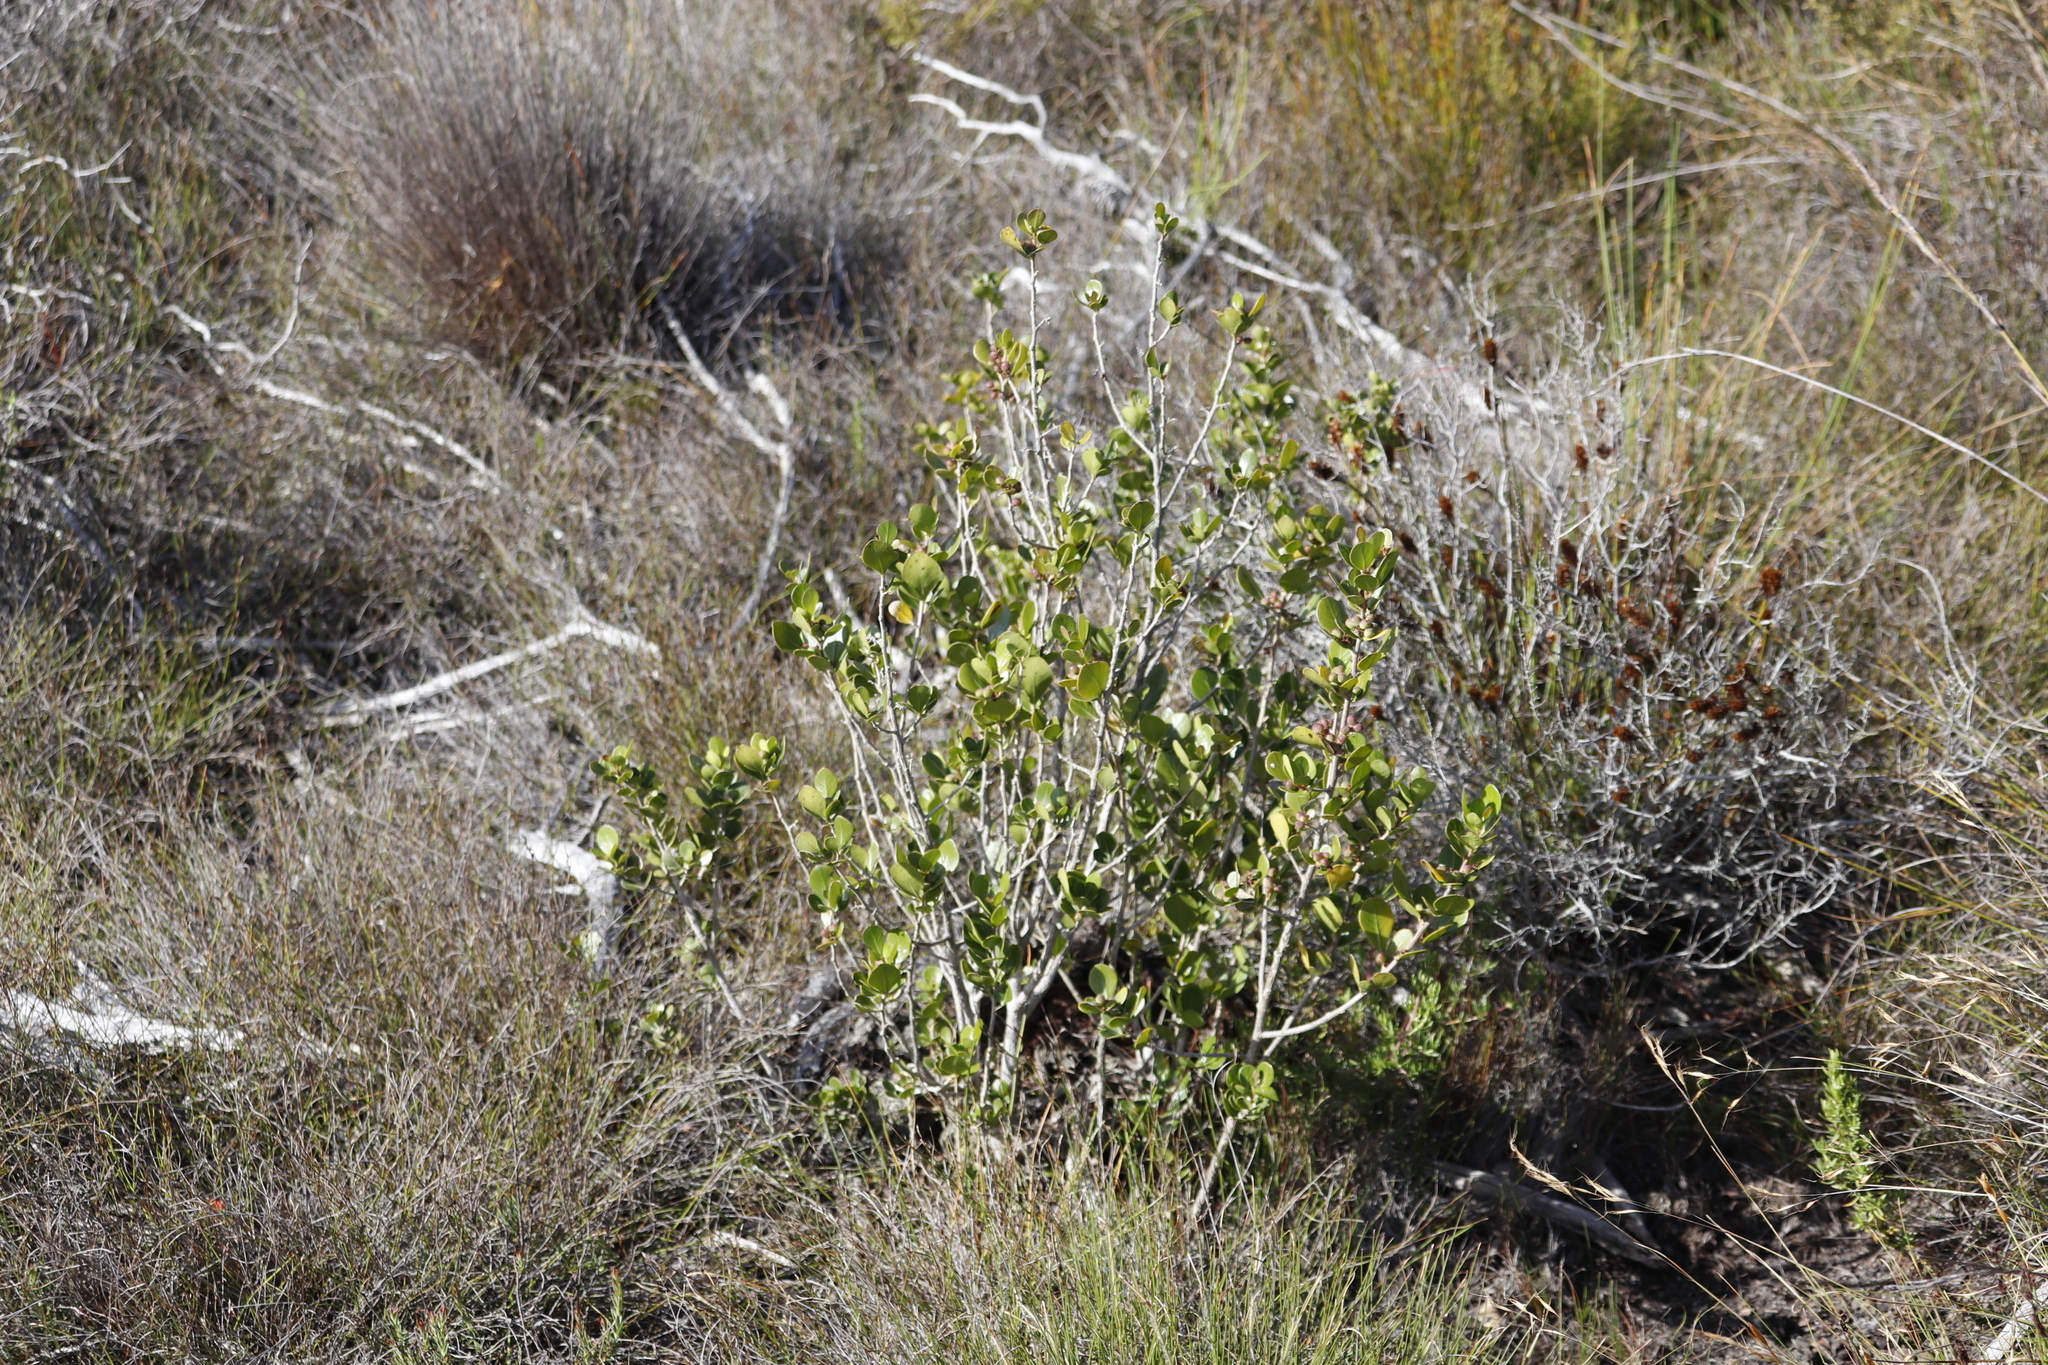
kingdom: Plantae
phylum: Tracheophyta
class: Magnoliopsida
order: Sapindales
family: Anacardiaceae
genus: Searsia
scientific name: Searsia lucida
